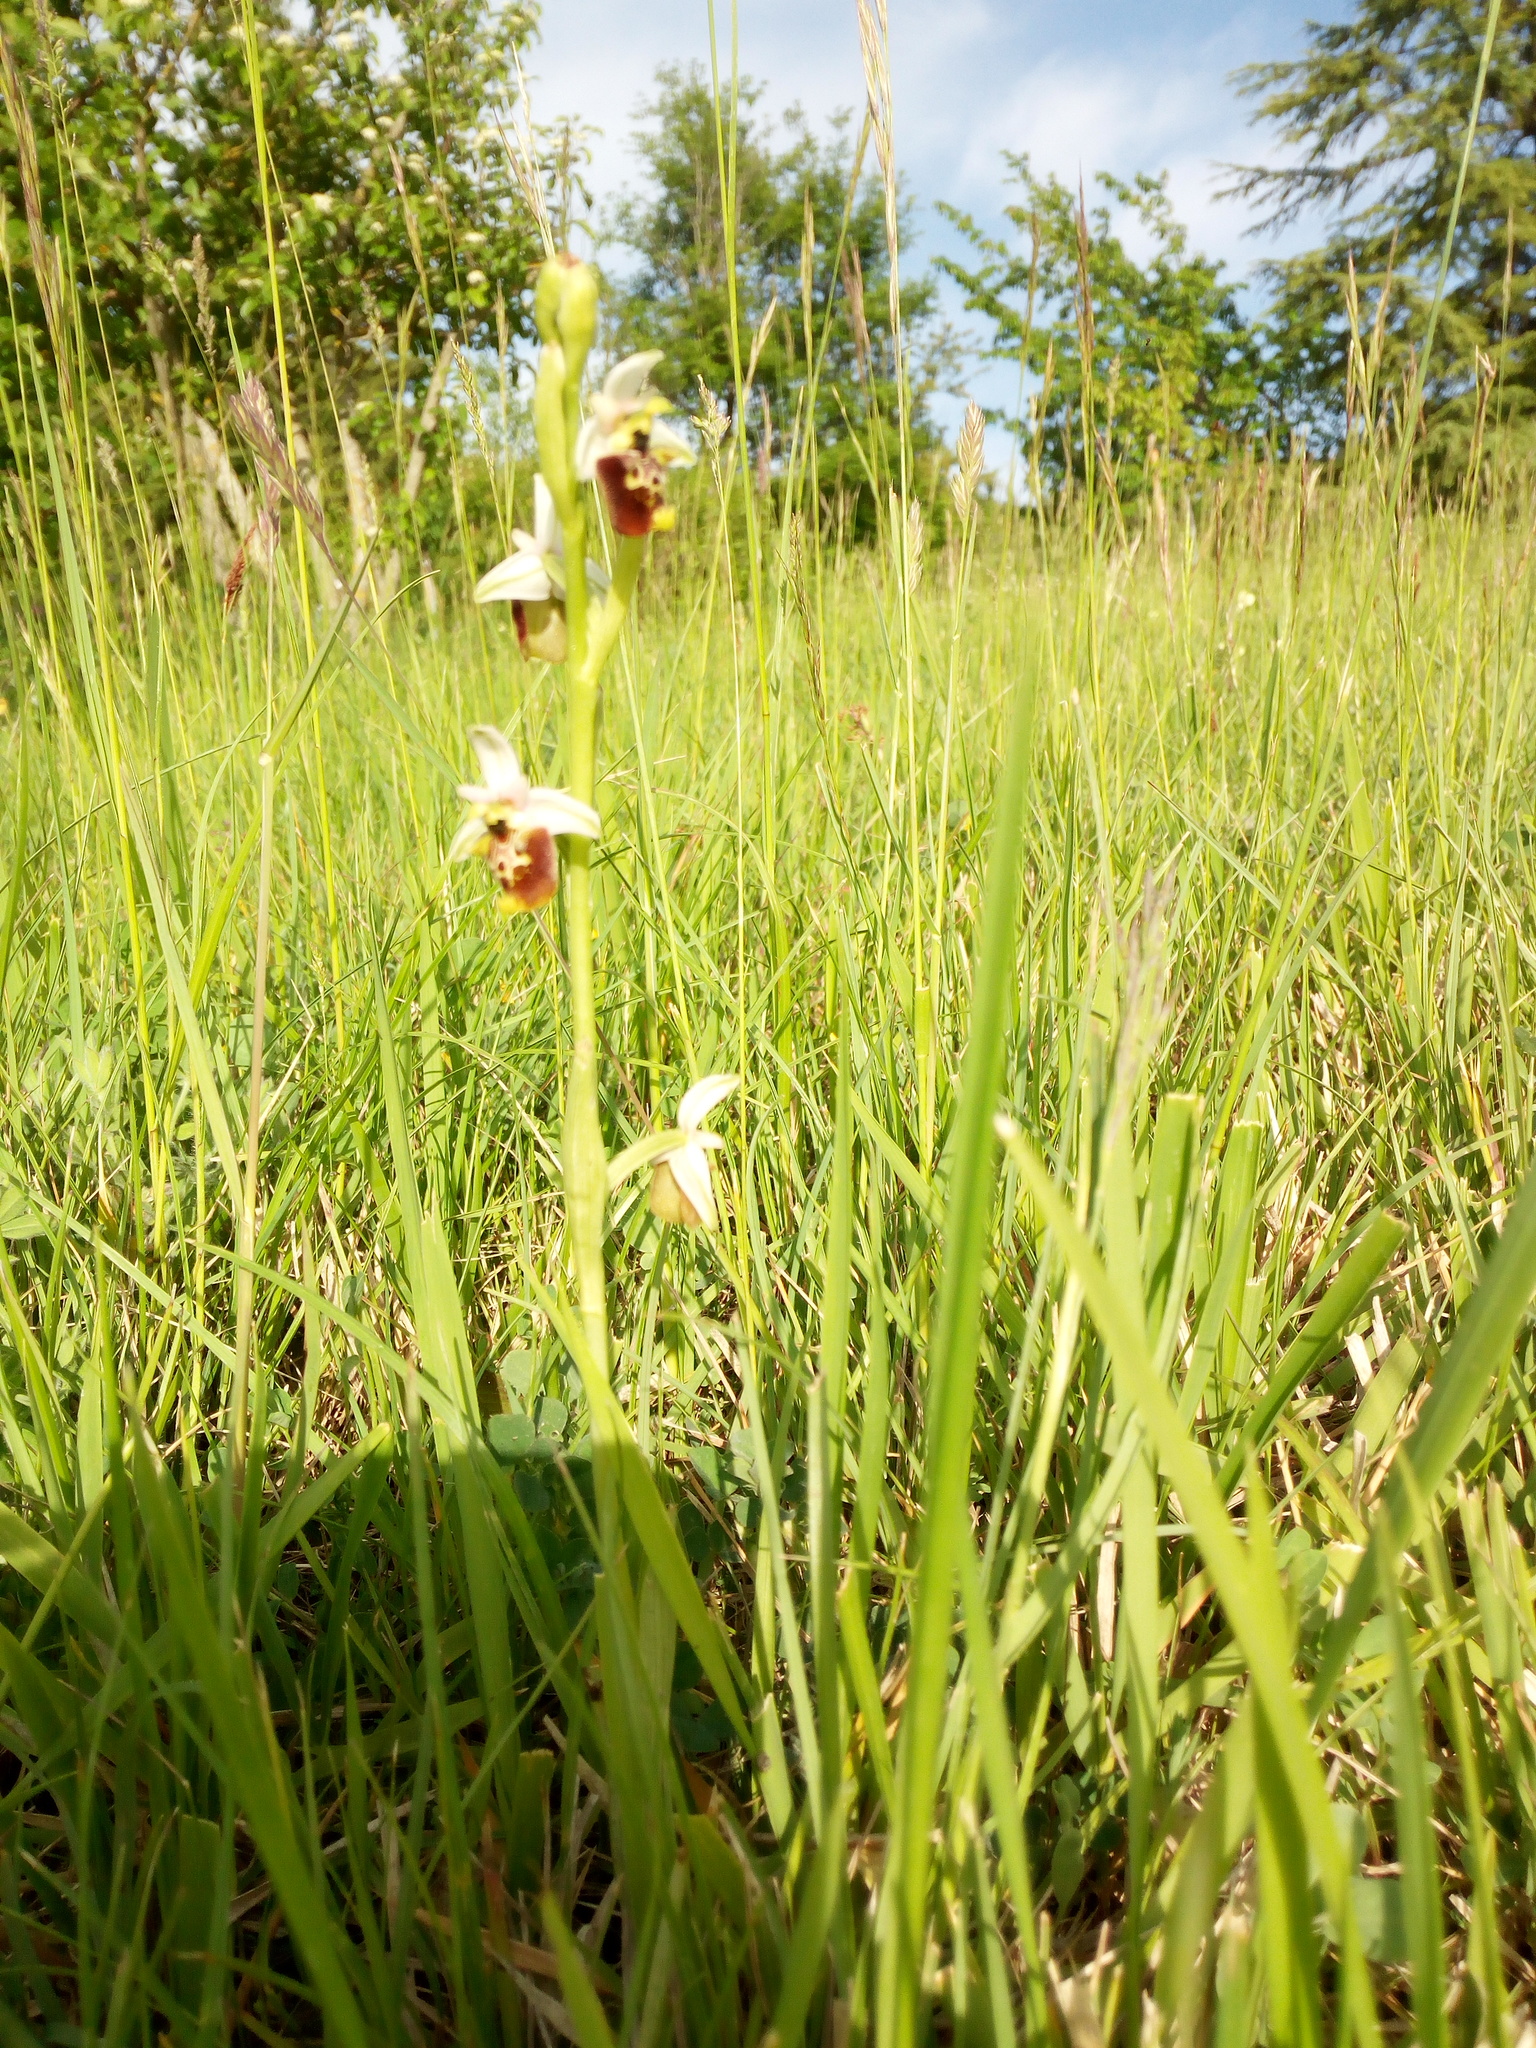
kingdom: Plantae
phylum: Tracheophyta
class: Liliopsida
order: Asparagales
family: Orchidaceae
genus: Ophrys
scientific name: Ophrys holosericea
